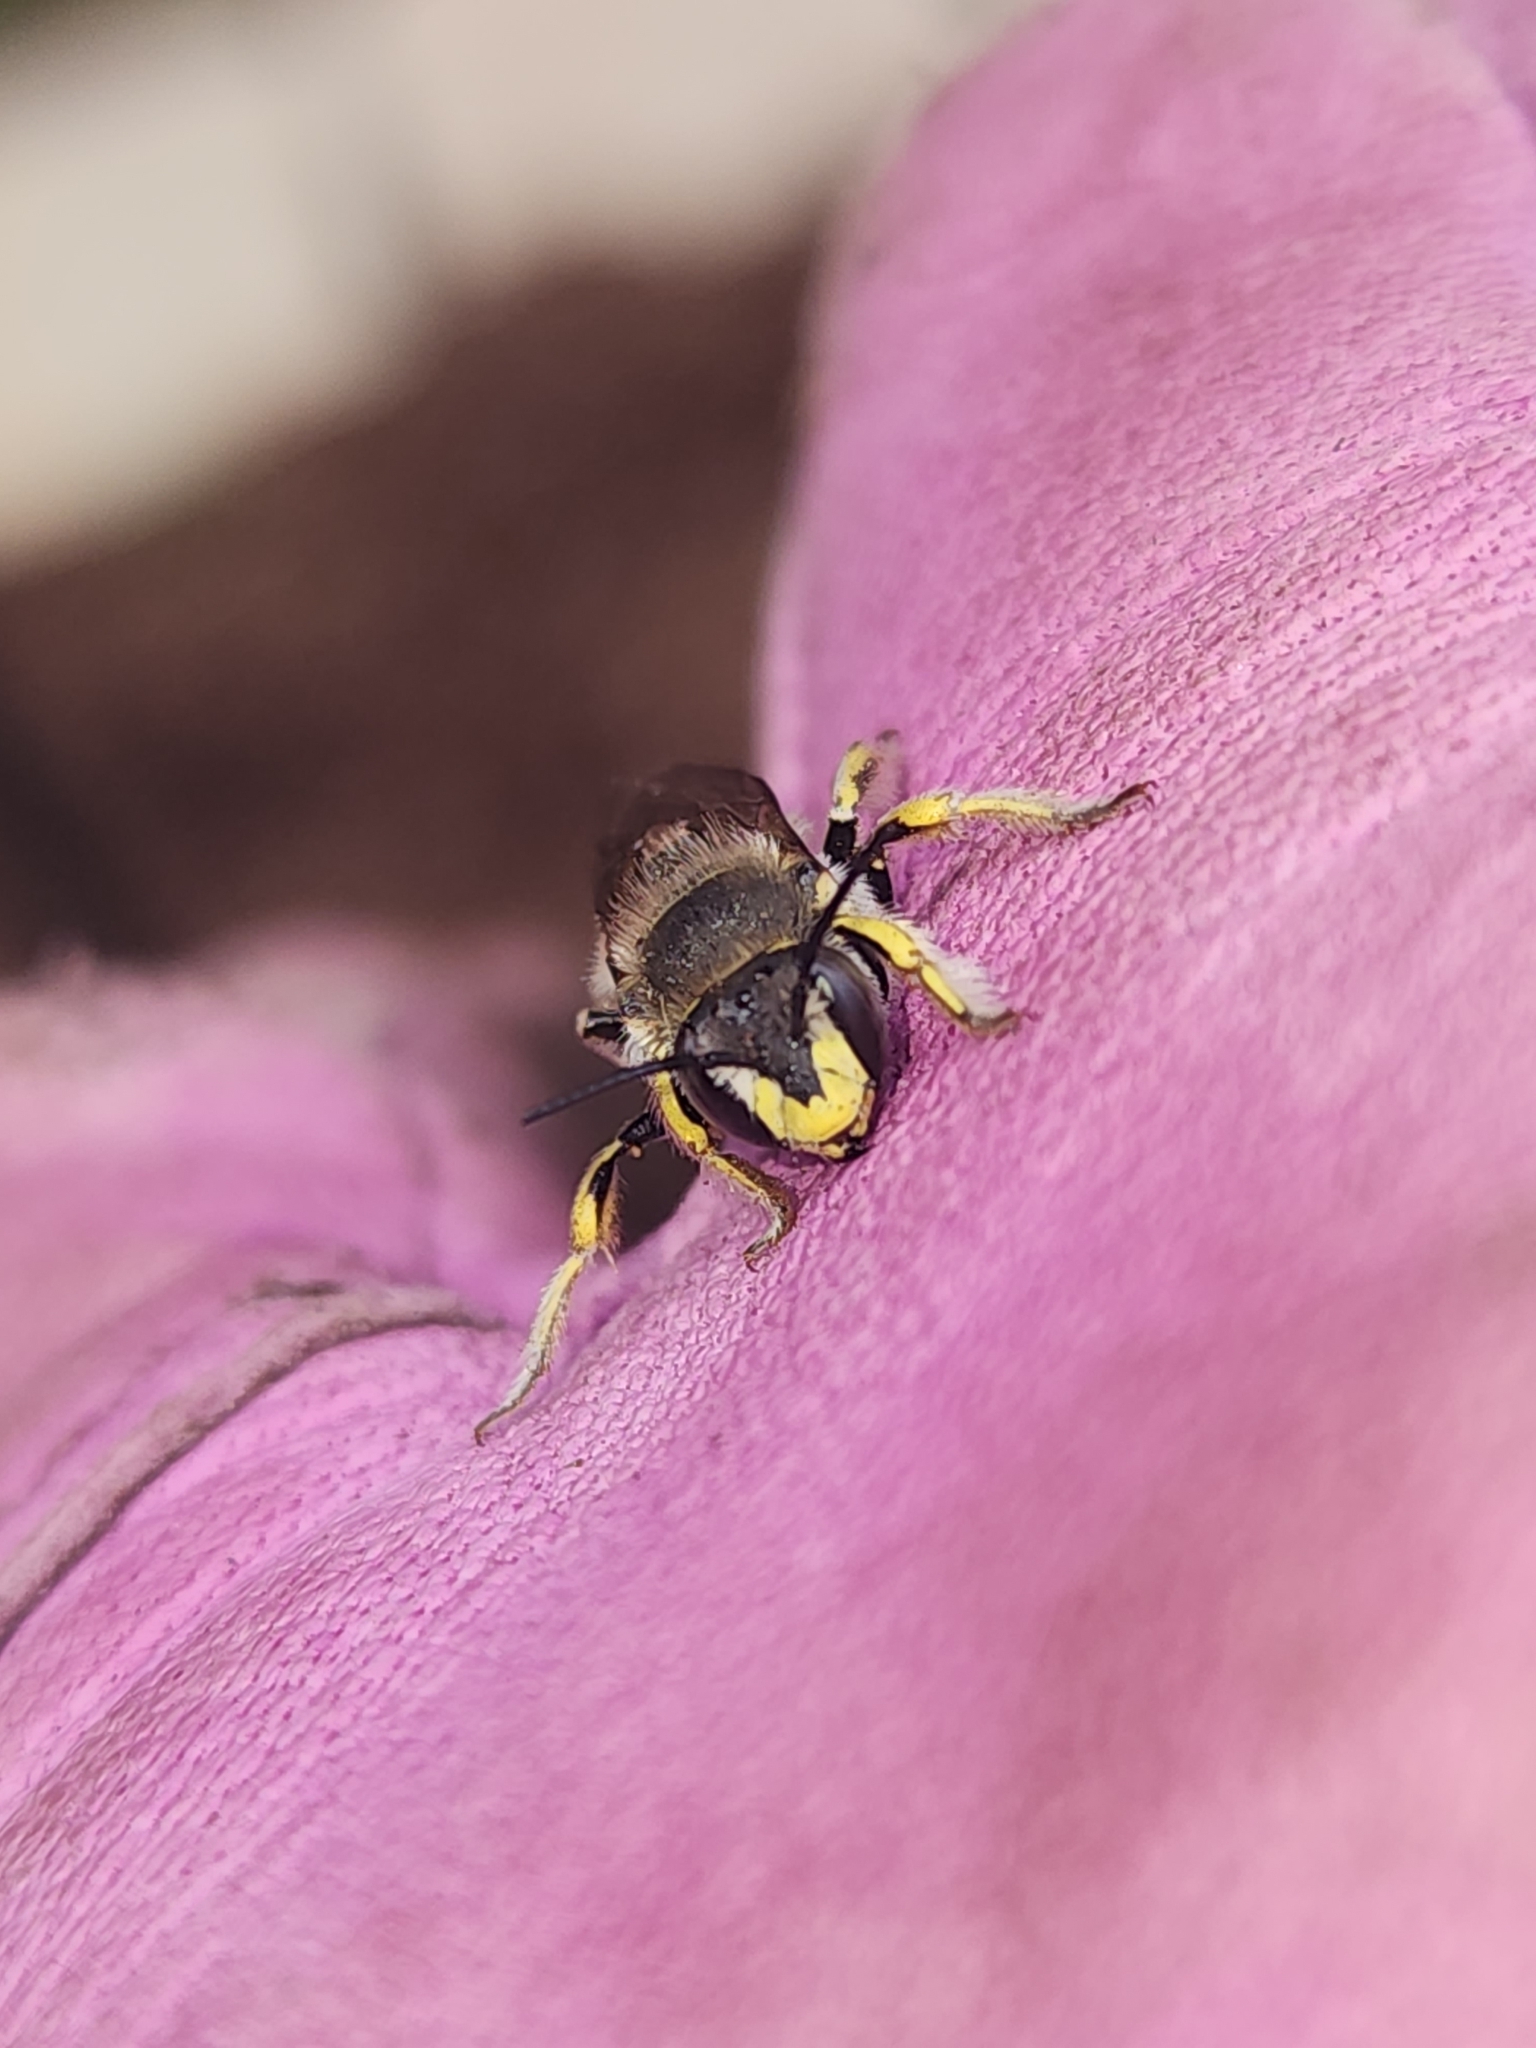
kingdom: Animalia
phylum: Arthropoda
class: Insecta
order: Hymenoptera
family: Megachilidae
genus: Anthidium
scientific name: Anthidium manicatum
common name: Wool carder bee
